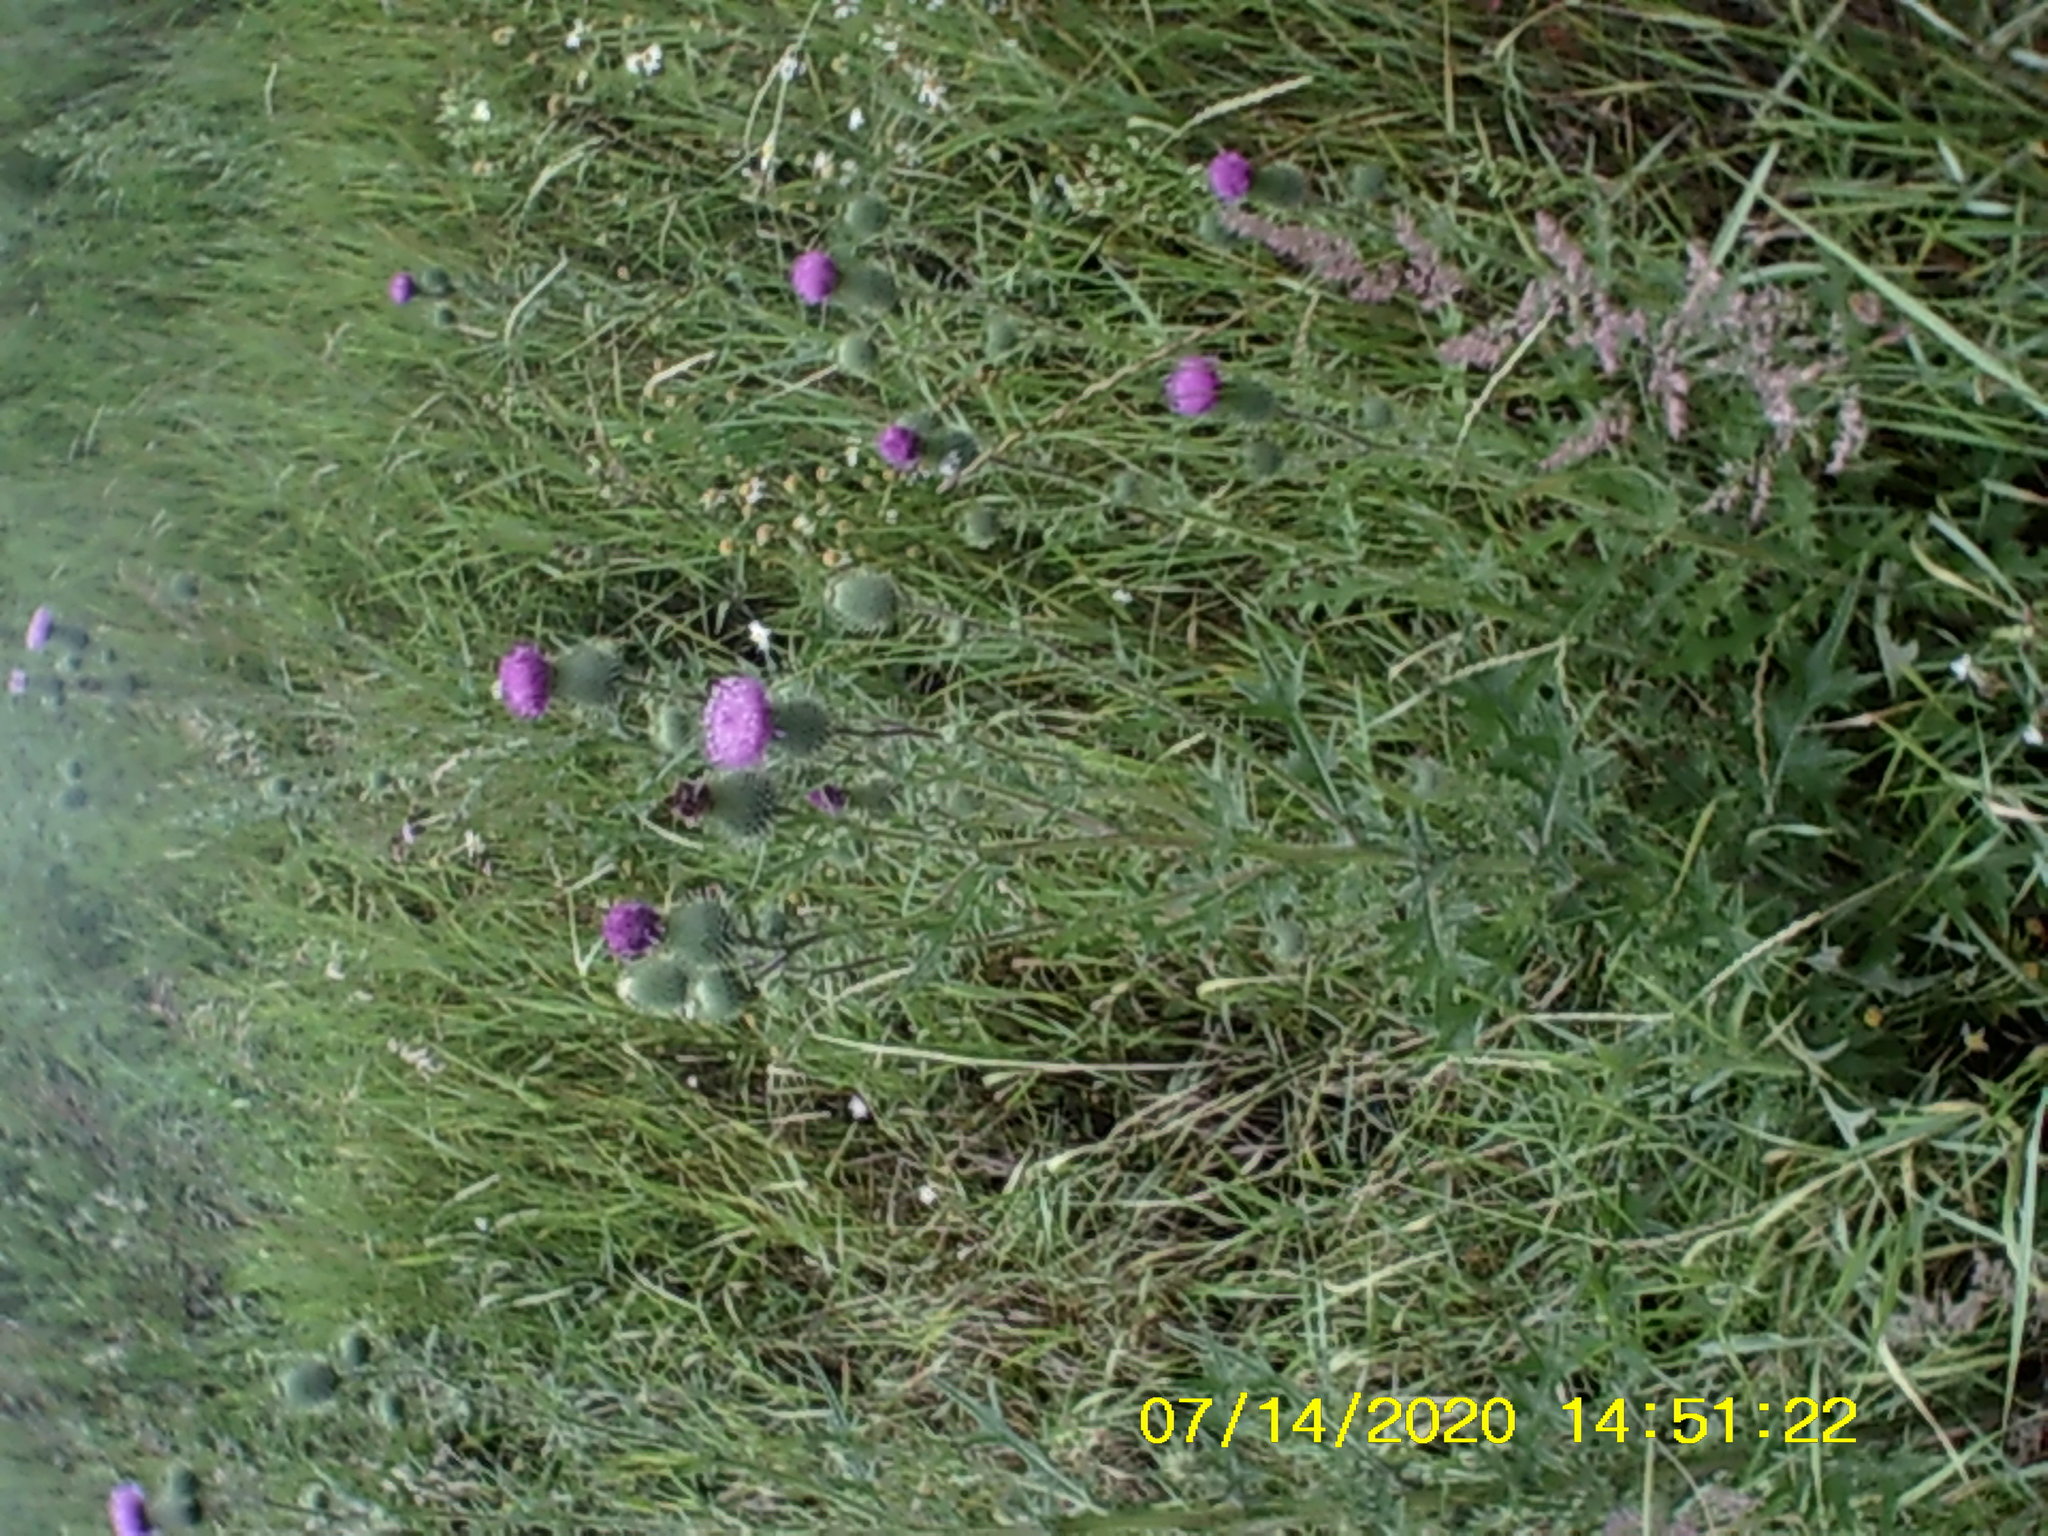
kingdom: Plantae
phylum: Tracheophyta
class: Magnoliopsida
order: Asterales
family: Asteraceae
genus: Cirsium
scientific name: Cirsium vulgare
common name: Bull thistle
